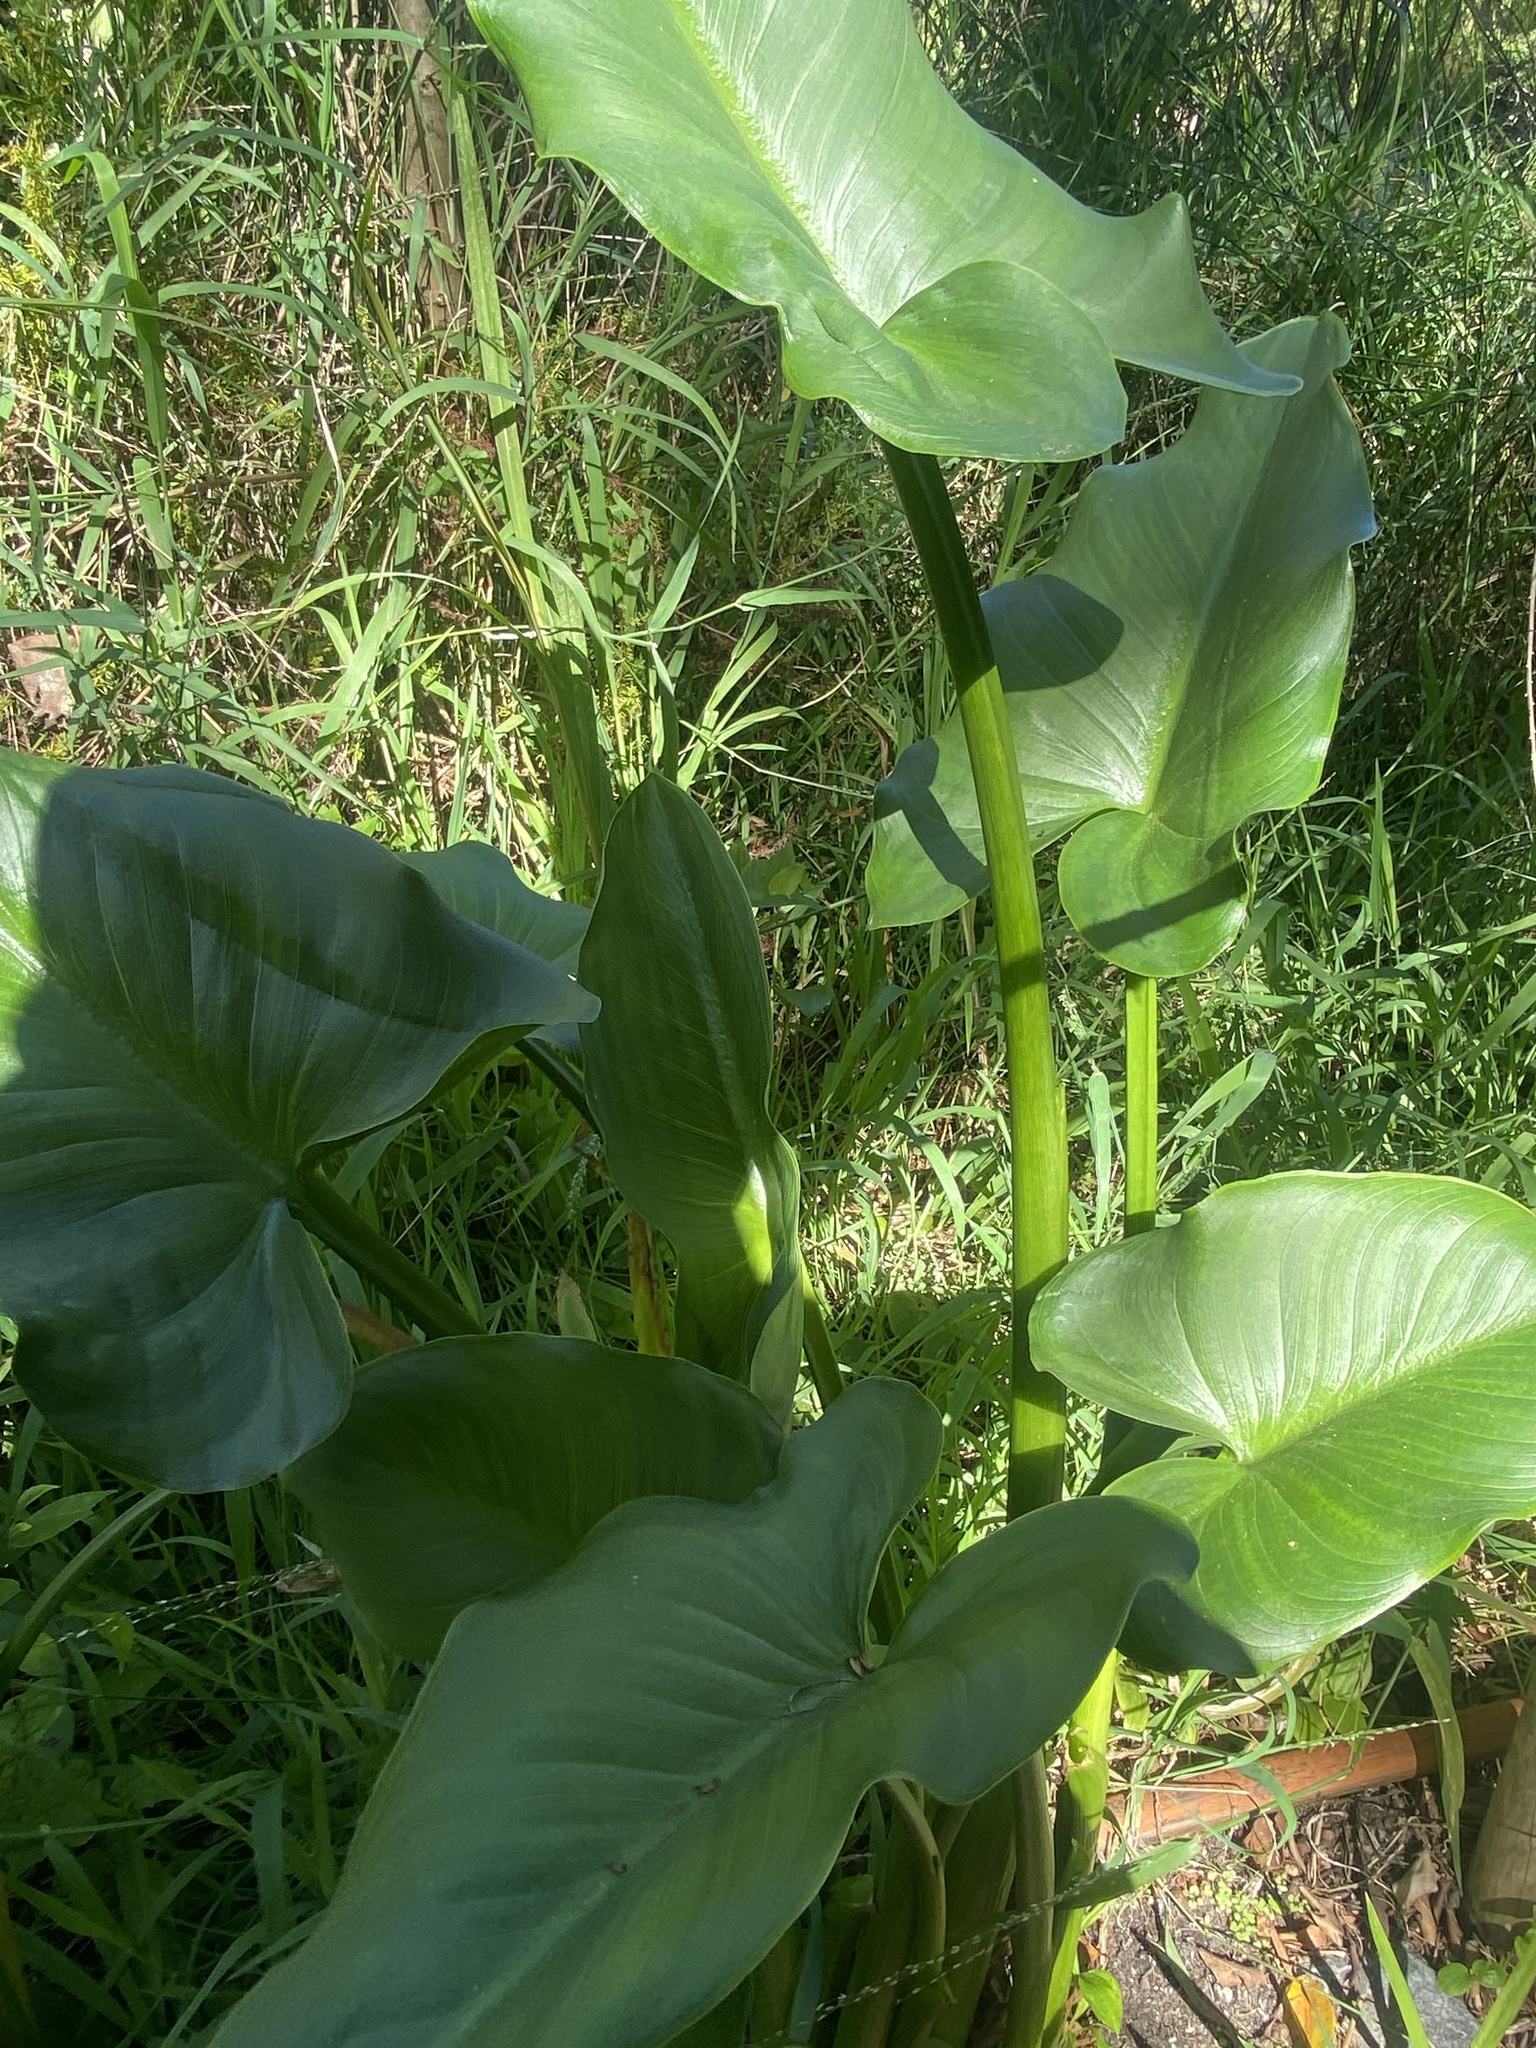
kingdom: Plantae
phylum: Tracheophyta
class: Liliopsida
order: Alismatales
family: Araceae
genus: Zantedeschia
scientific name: Zantedeschia aethiopica
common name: Altar-lily
